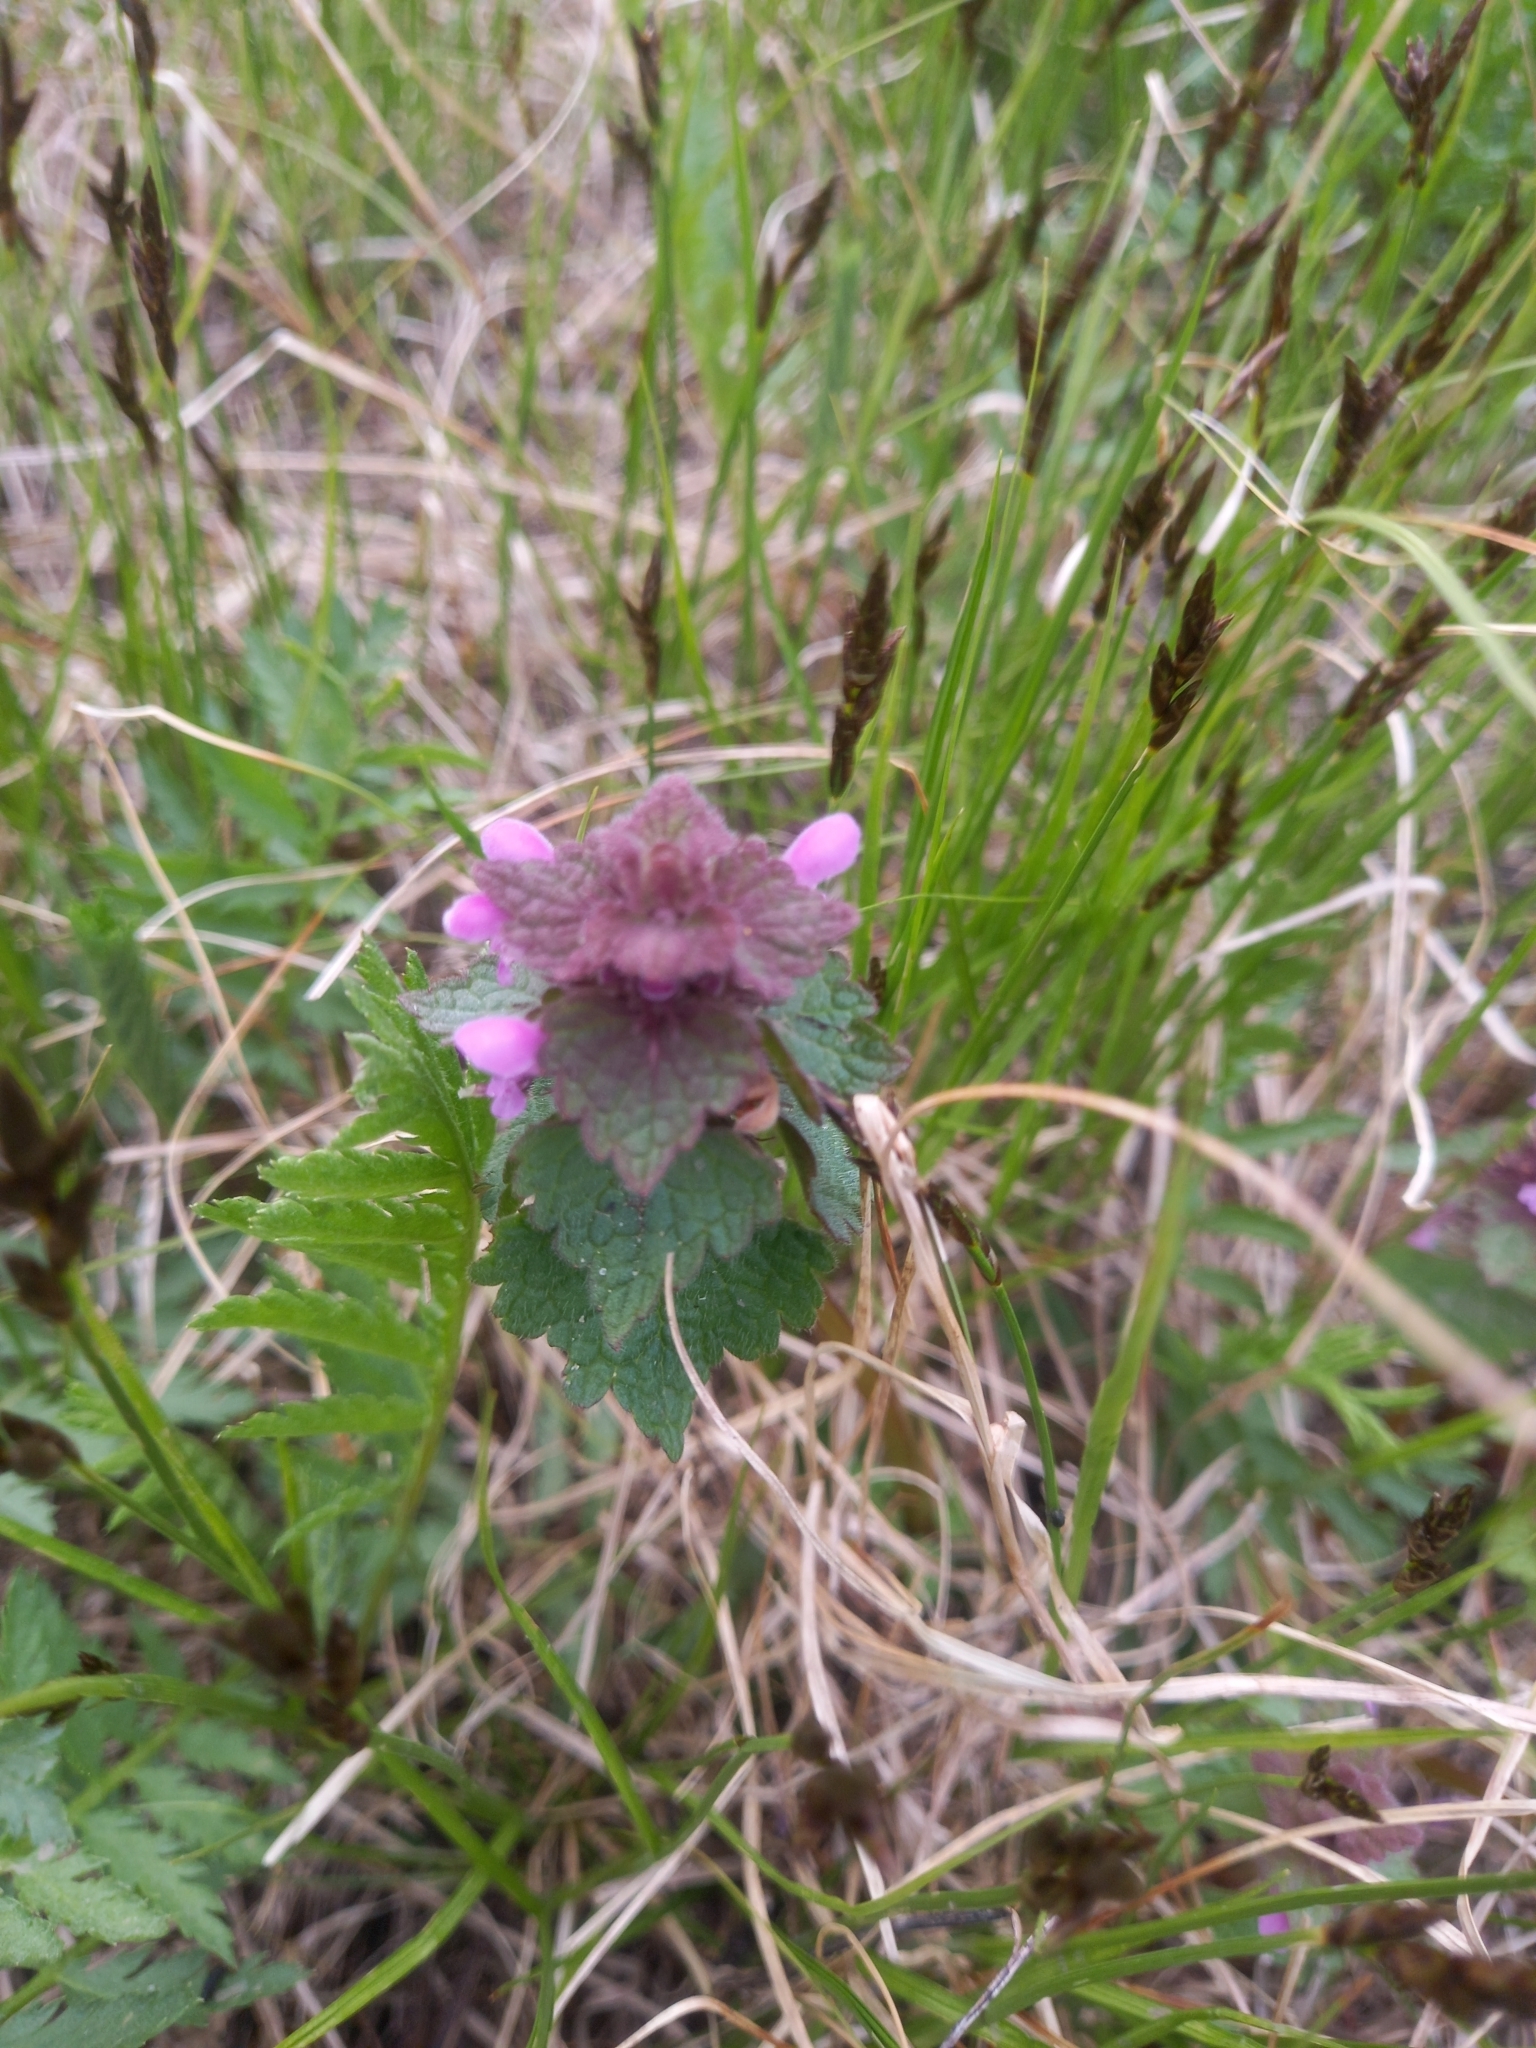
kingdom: Plantae
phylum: Tracheophyta
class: Magnoliopsida
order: Lamiales
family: Lamiaceae
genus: Lamium
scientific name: Lamium purpureum
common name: Red dead-nettle
